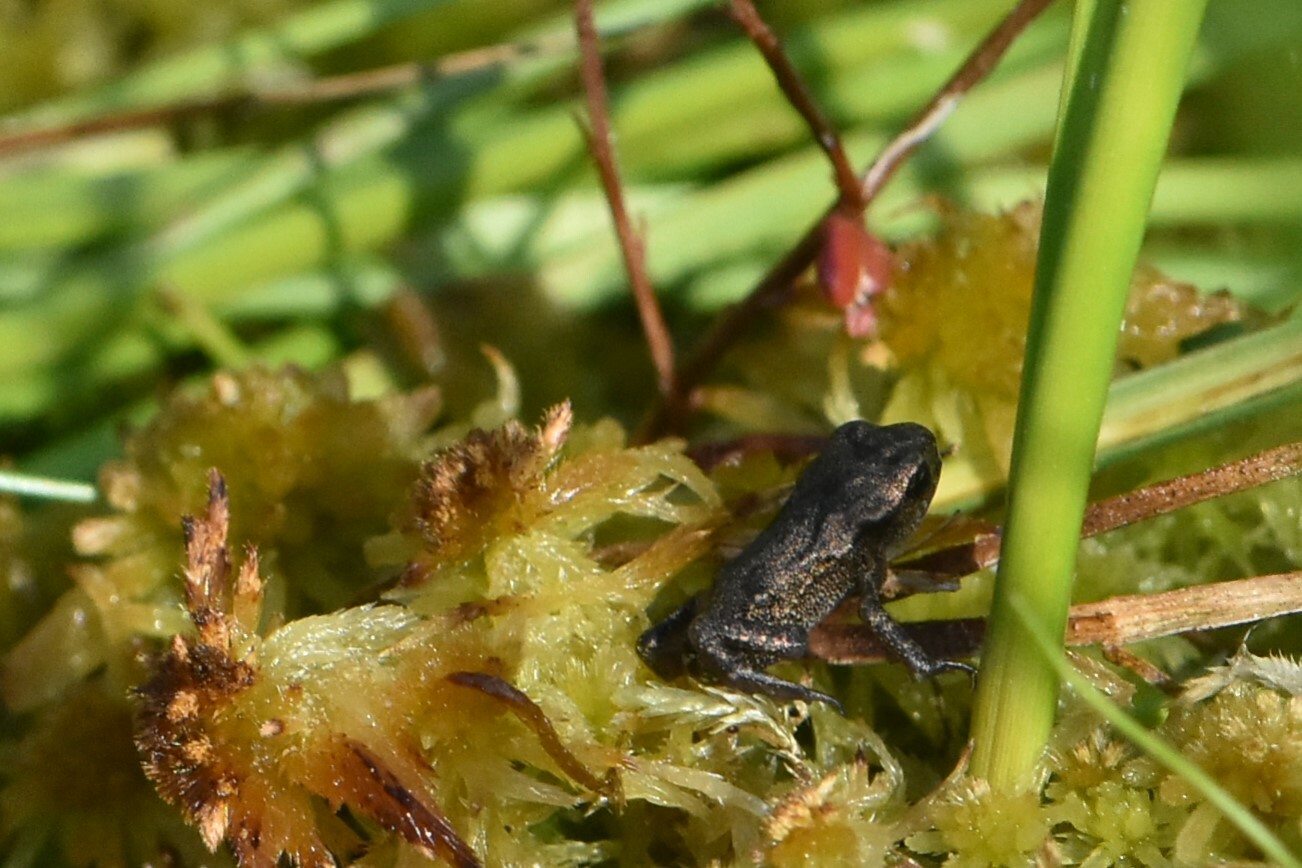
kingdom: Animalia
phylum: Chordata
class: Amphibia
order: Anura
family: Bufonidae
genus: Bufo
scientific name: Bufo bufo
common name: Common toad
